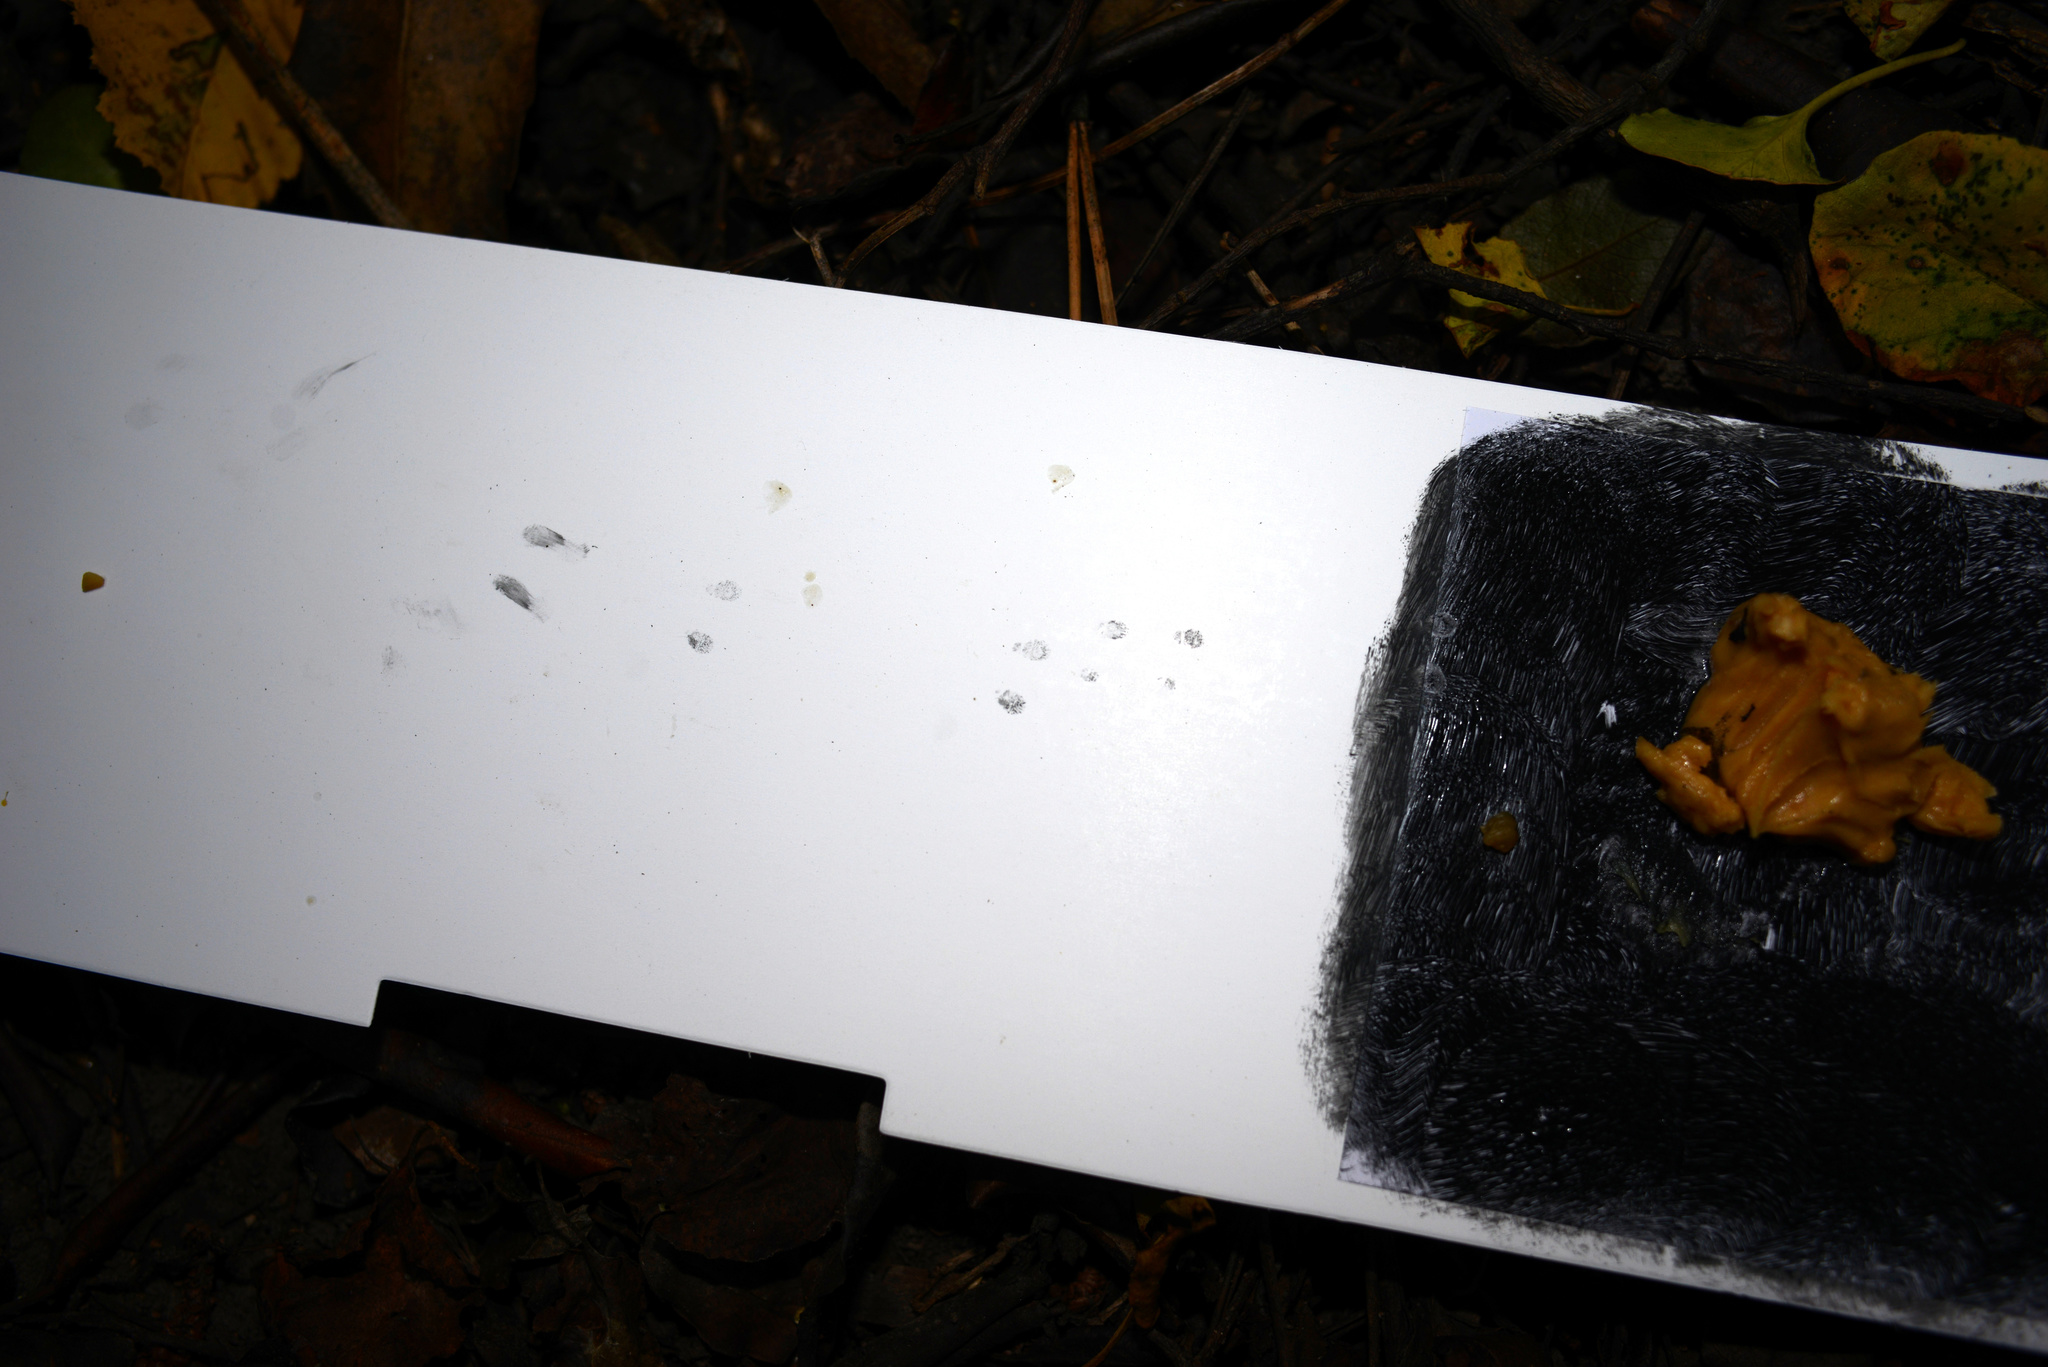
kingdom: Animalia
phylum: Chordata
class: Mammalia
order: Erinaceomorpha
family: Erinaceidae
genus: Erinaceus
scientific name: Erinaceus europaeus
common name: West european hedgehog
